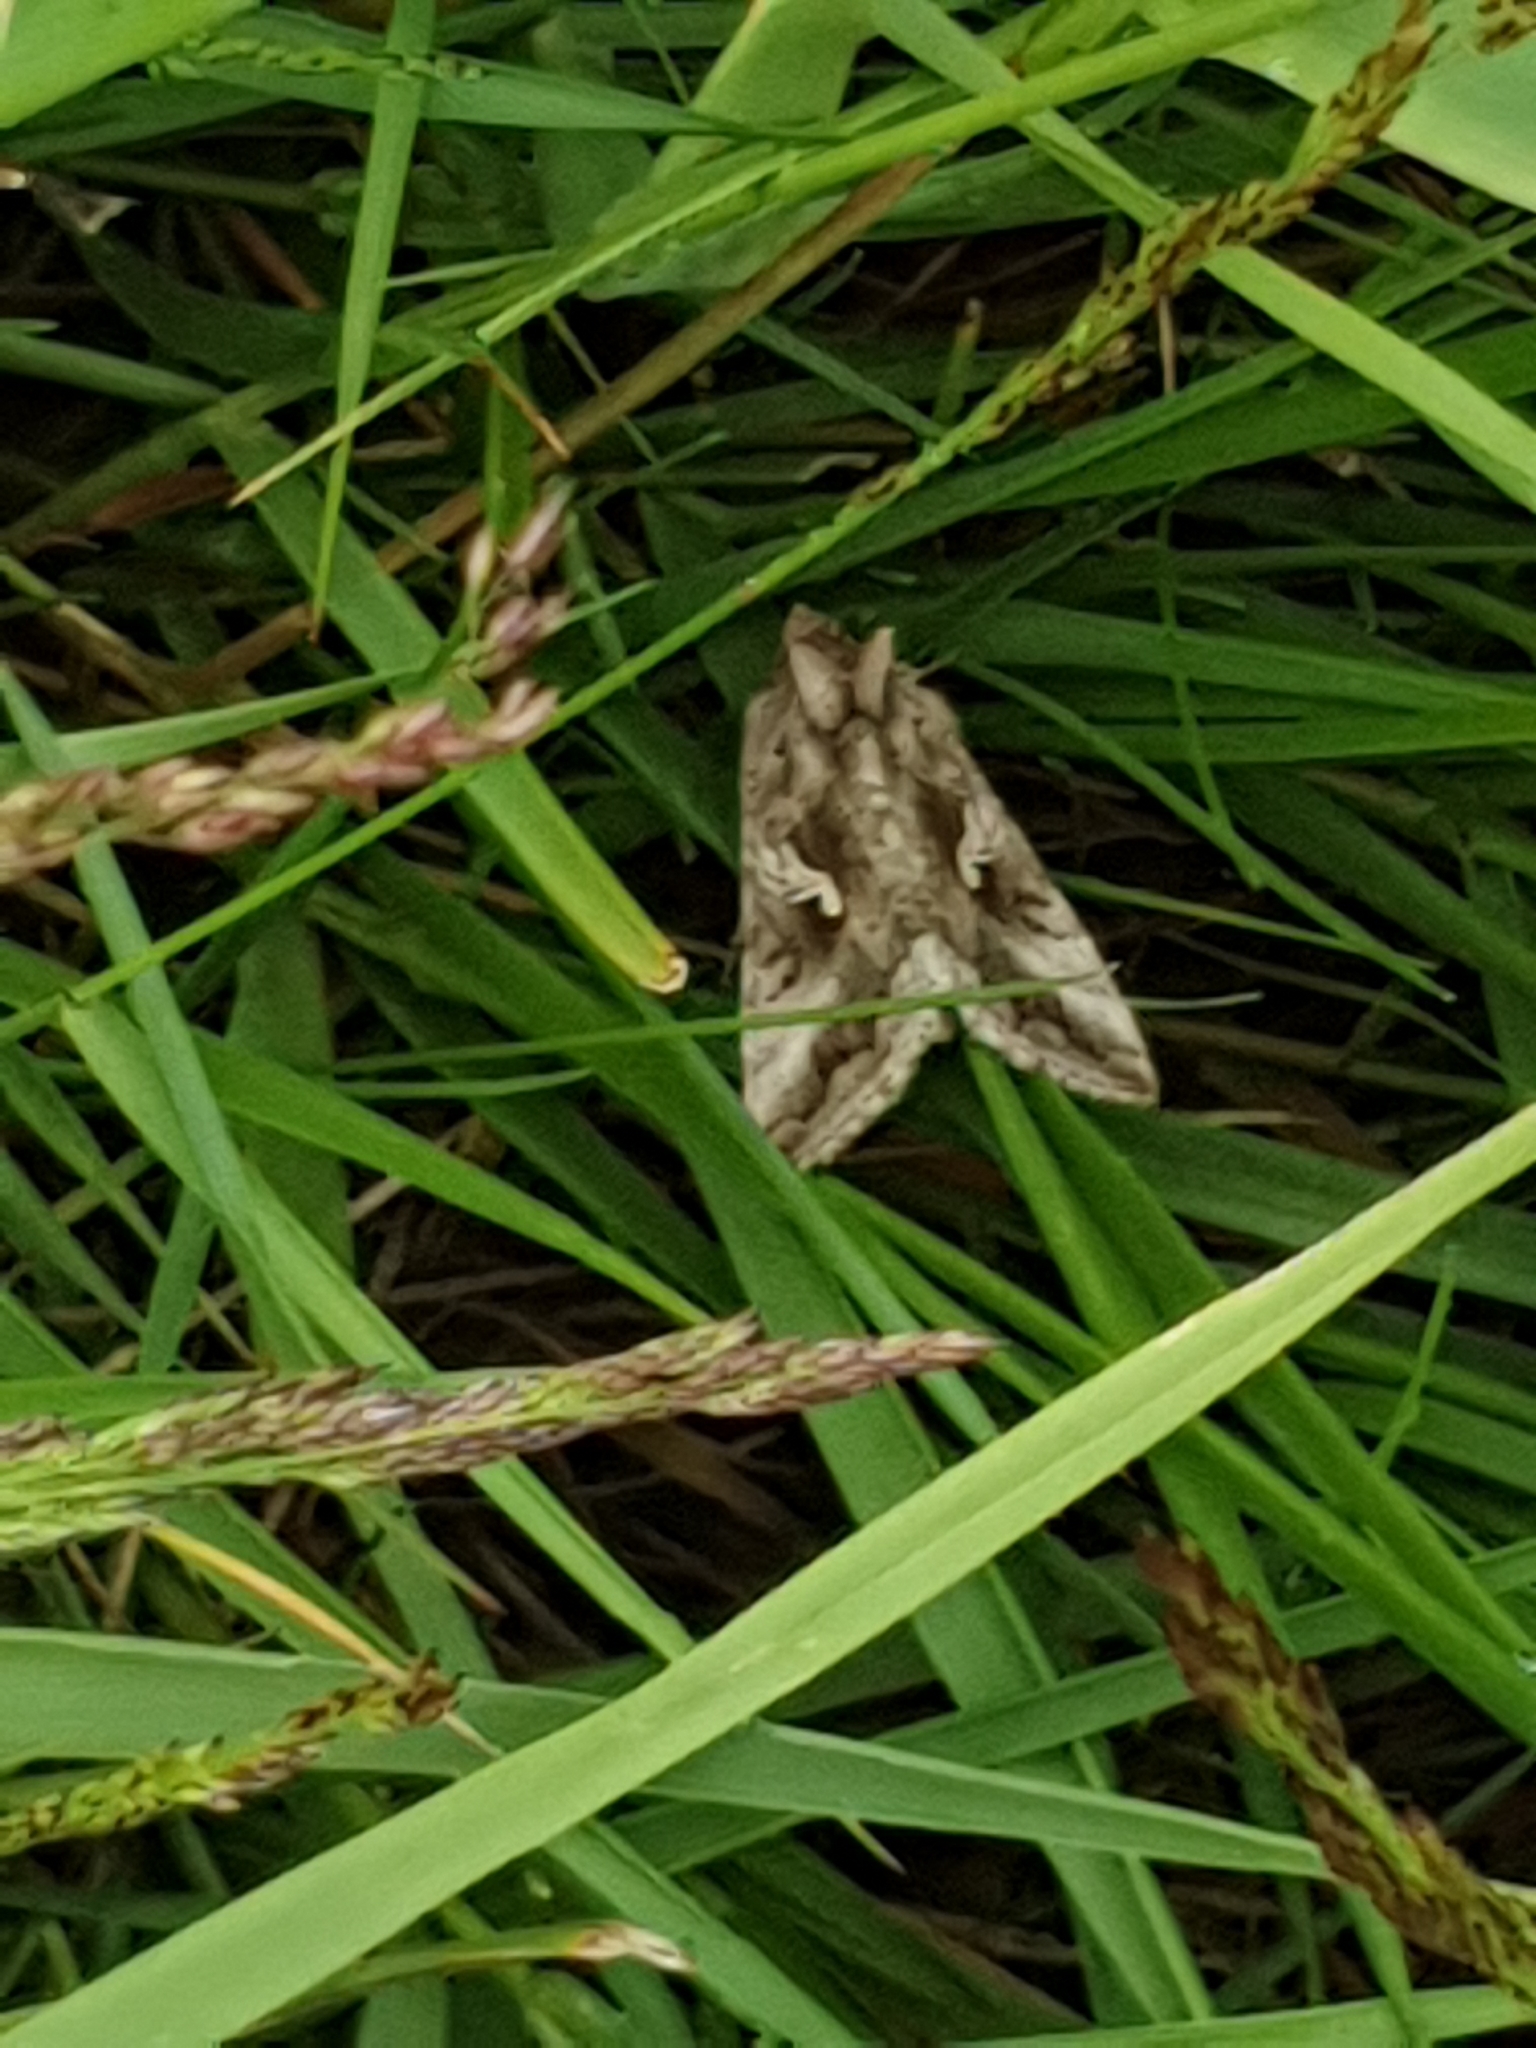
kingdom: Animalia
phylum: Arthropoda
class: Insecta
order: Lepidoptera
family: Noctuidae
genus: Autographa
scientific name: Autographa gamma
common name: Silver y
